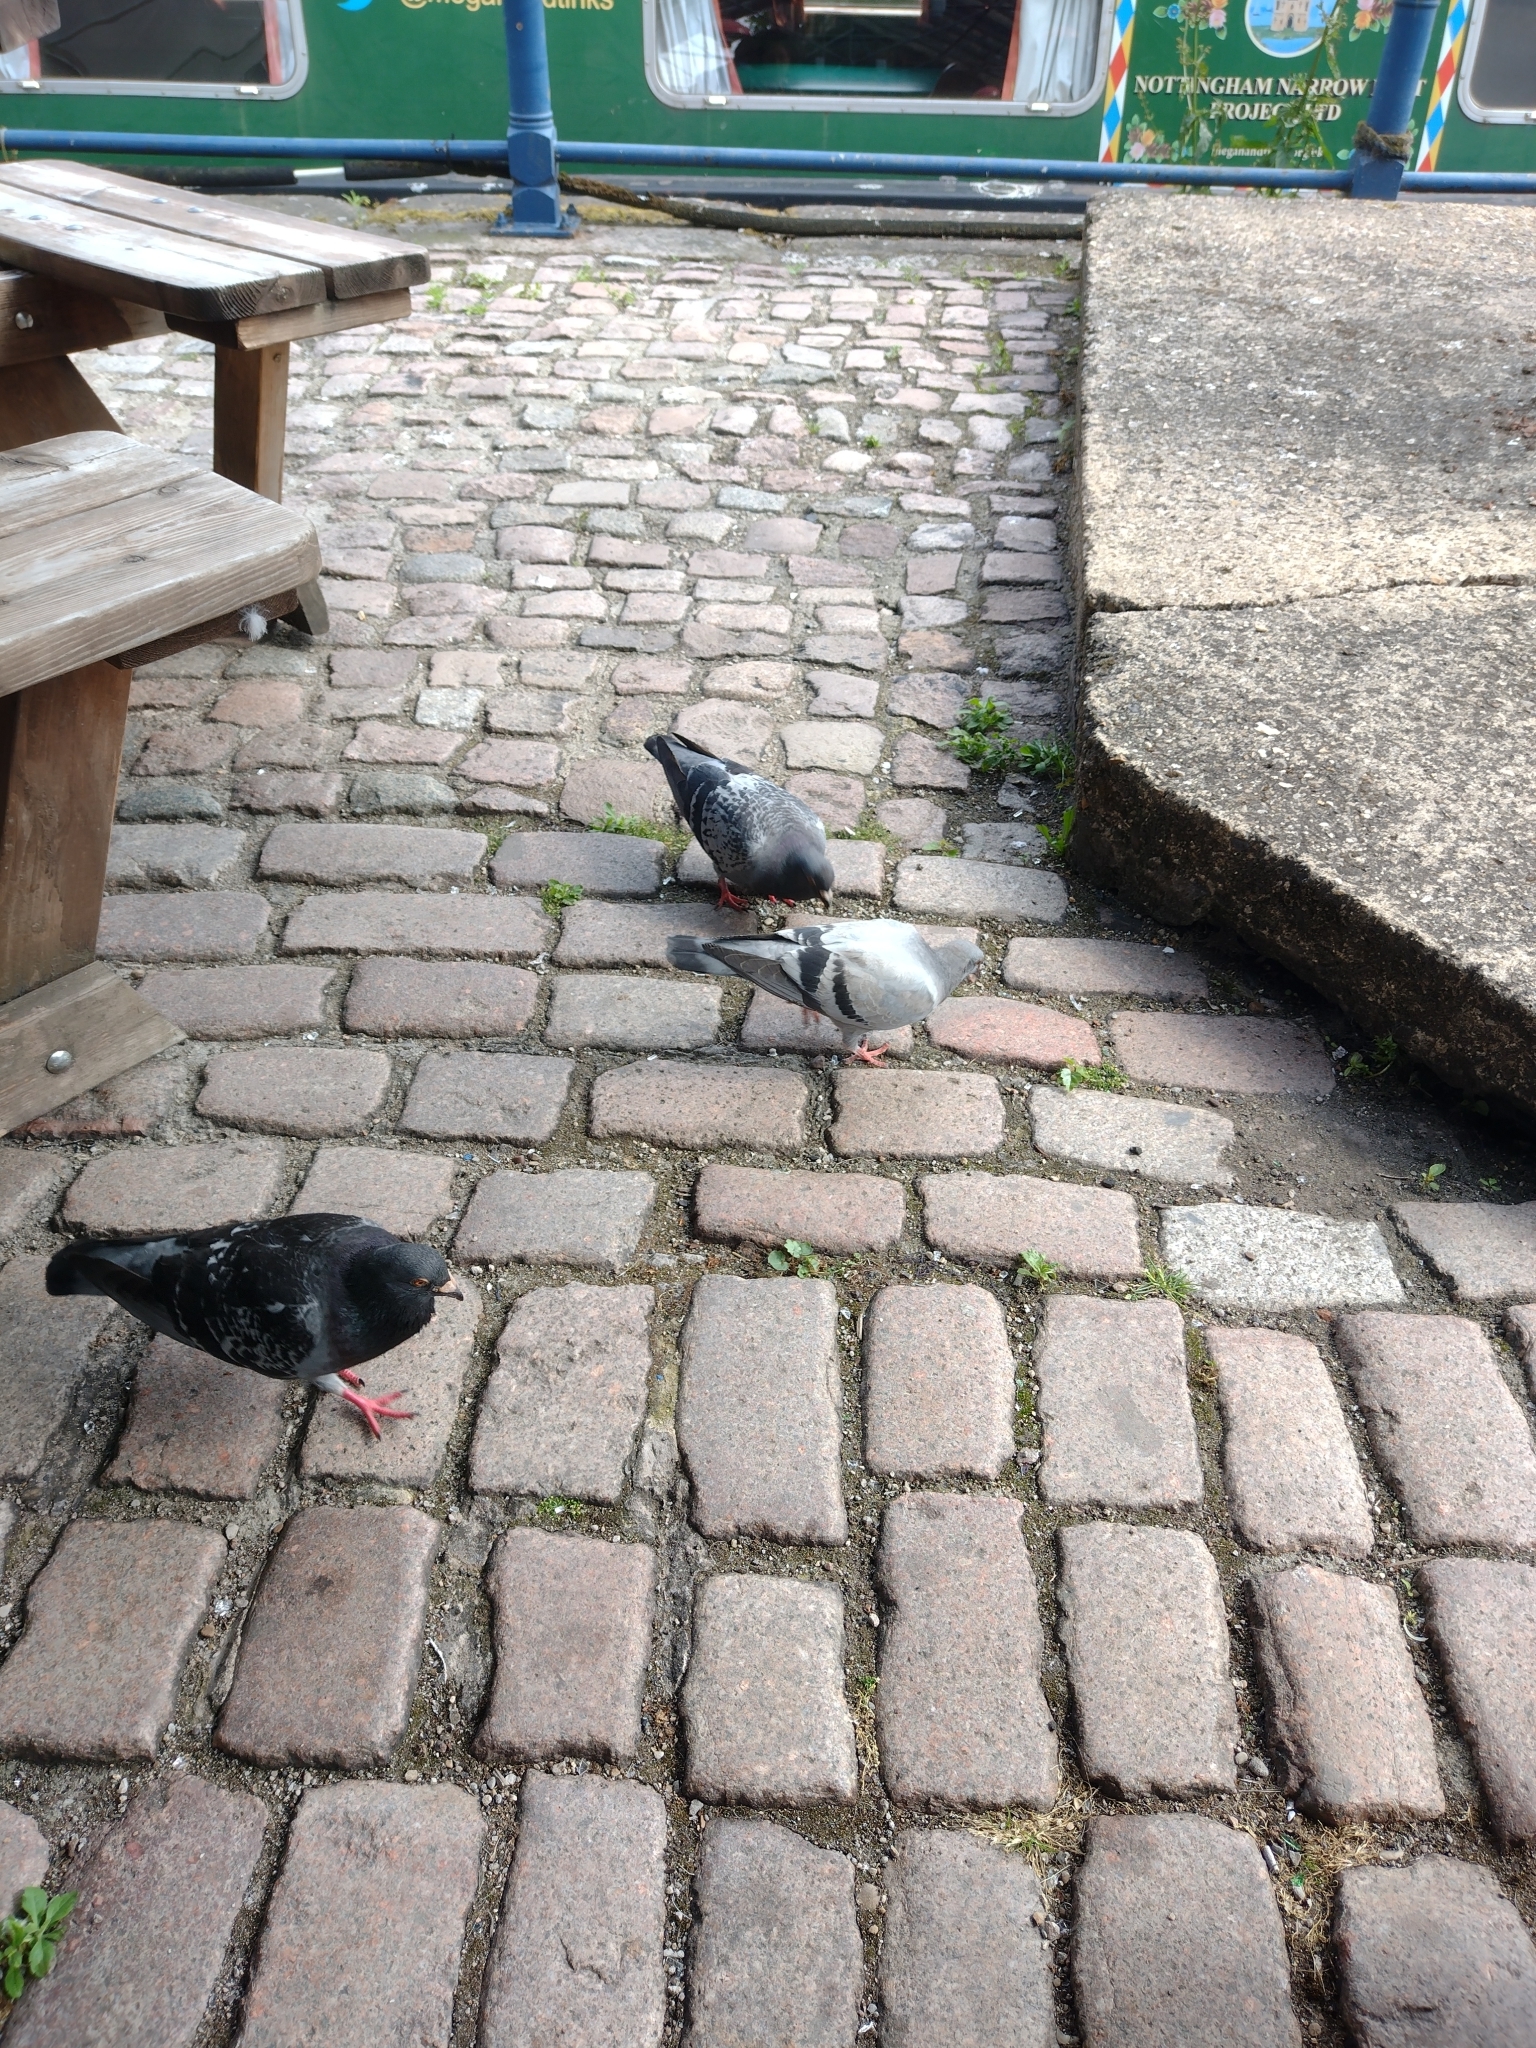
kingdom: Animalia
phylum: Chordata
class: Aves
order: Columbiformes
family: Columbidae
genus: Columba
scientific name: Columba livia
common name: Rock pigeon
